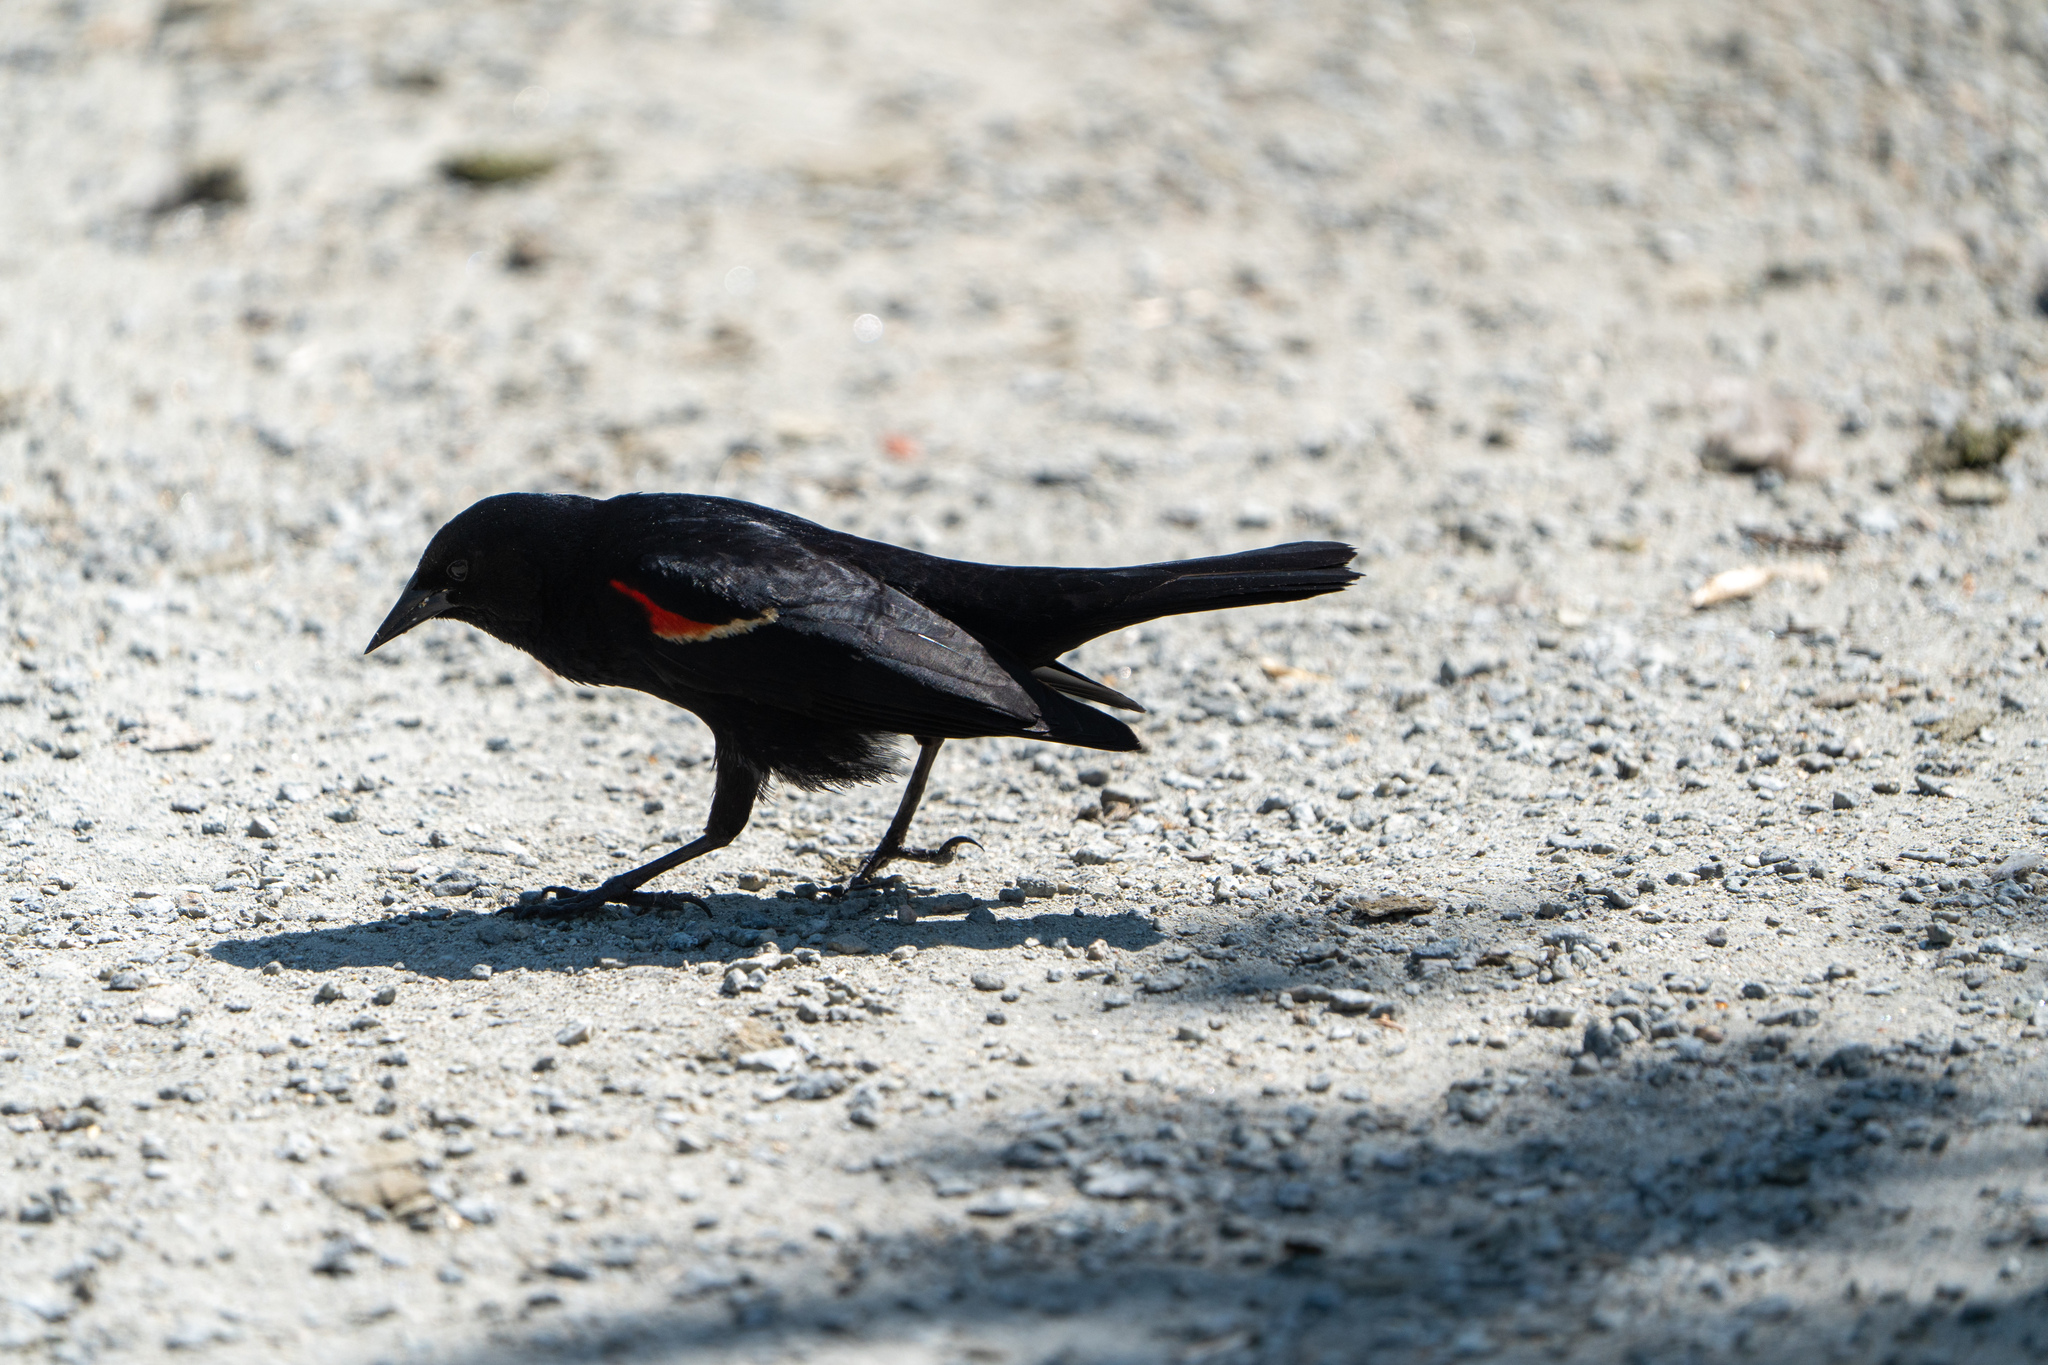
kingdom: Animalia
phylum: Chordata
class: Aves
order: Passeriformes
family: Icteridae
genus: Agelaius
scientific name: Agelaius phoeniceus
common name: Red-winged blackbird
